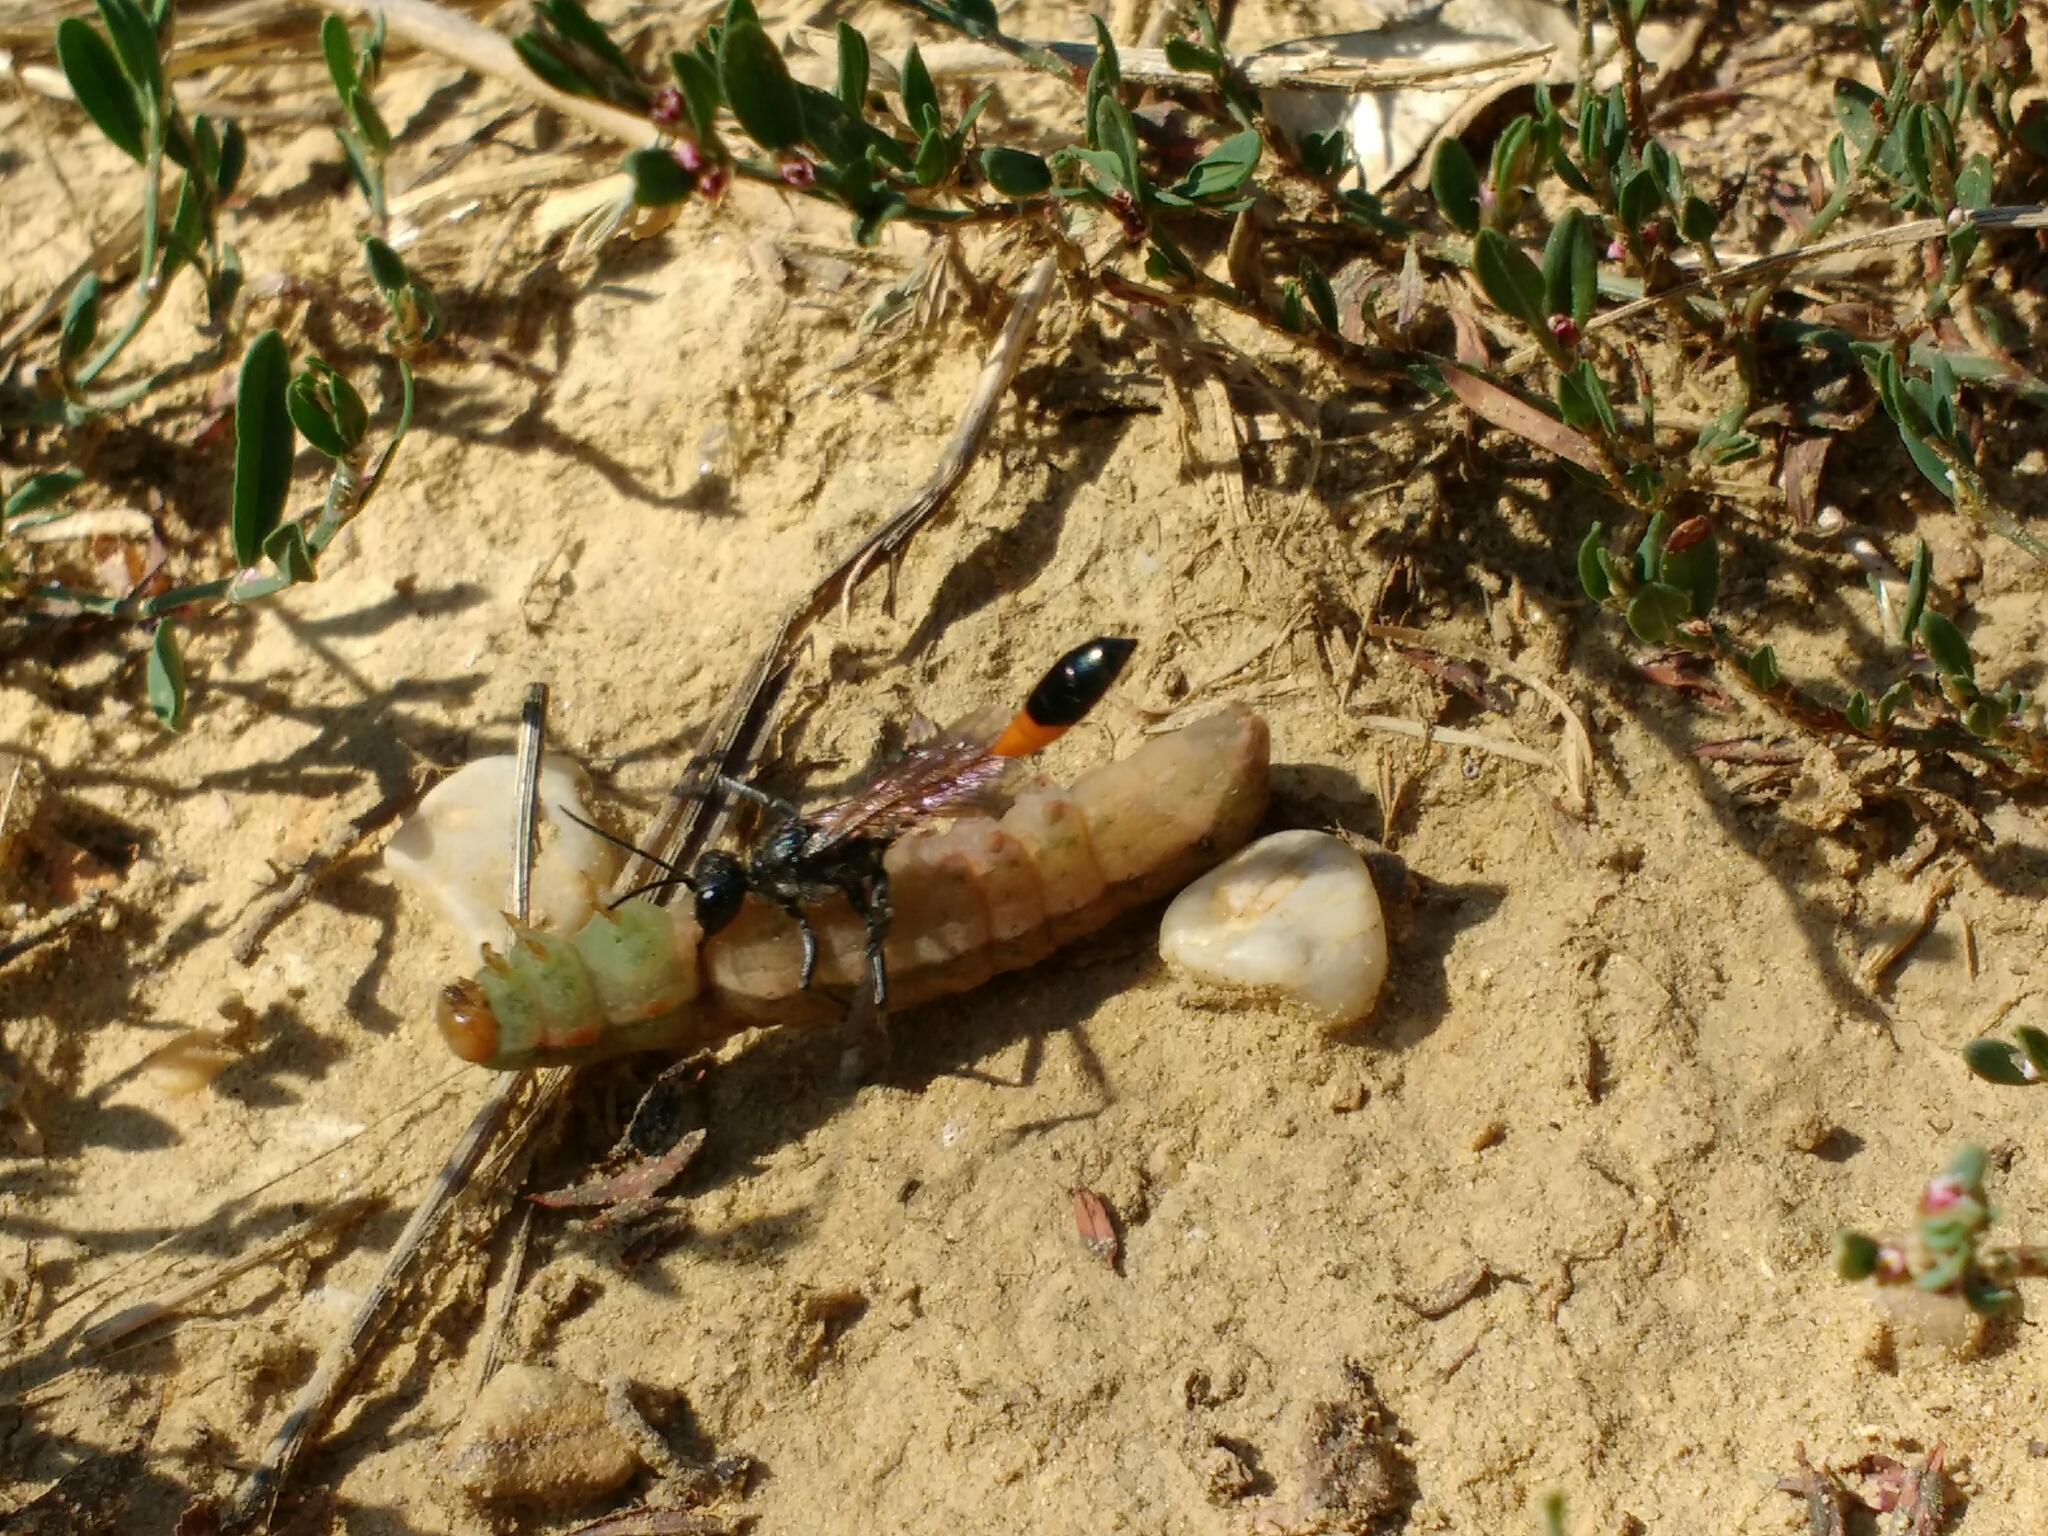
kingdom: Animalia
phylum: Arthropoda
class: Insecta
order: Hymenoptera
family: Sphecidae
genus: Ammophila
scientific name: Ammophila sabulosa
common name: Red banded sand wasp
